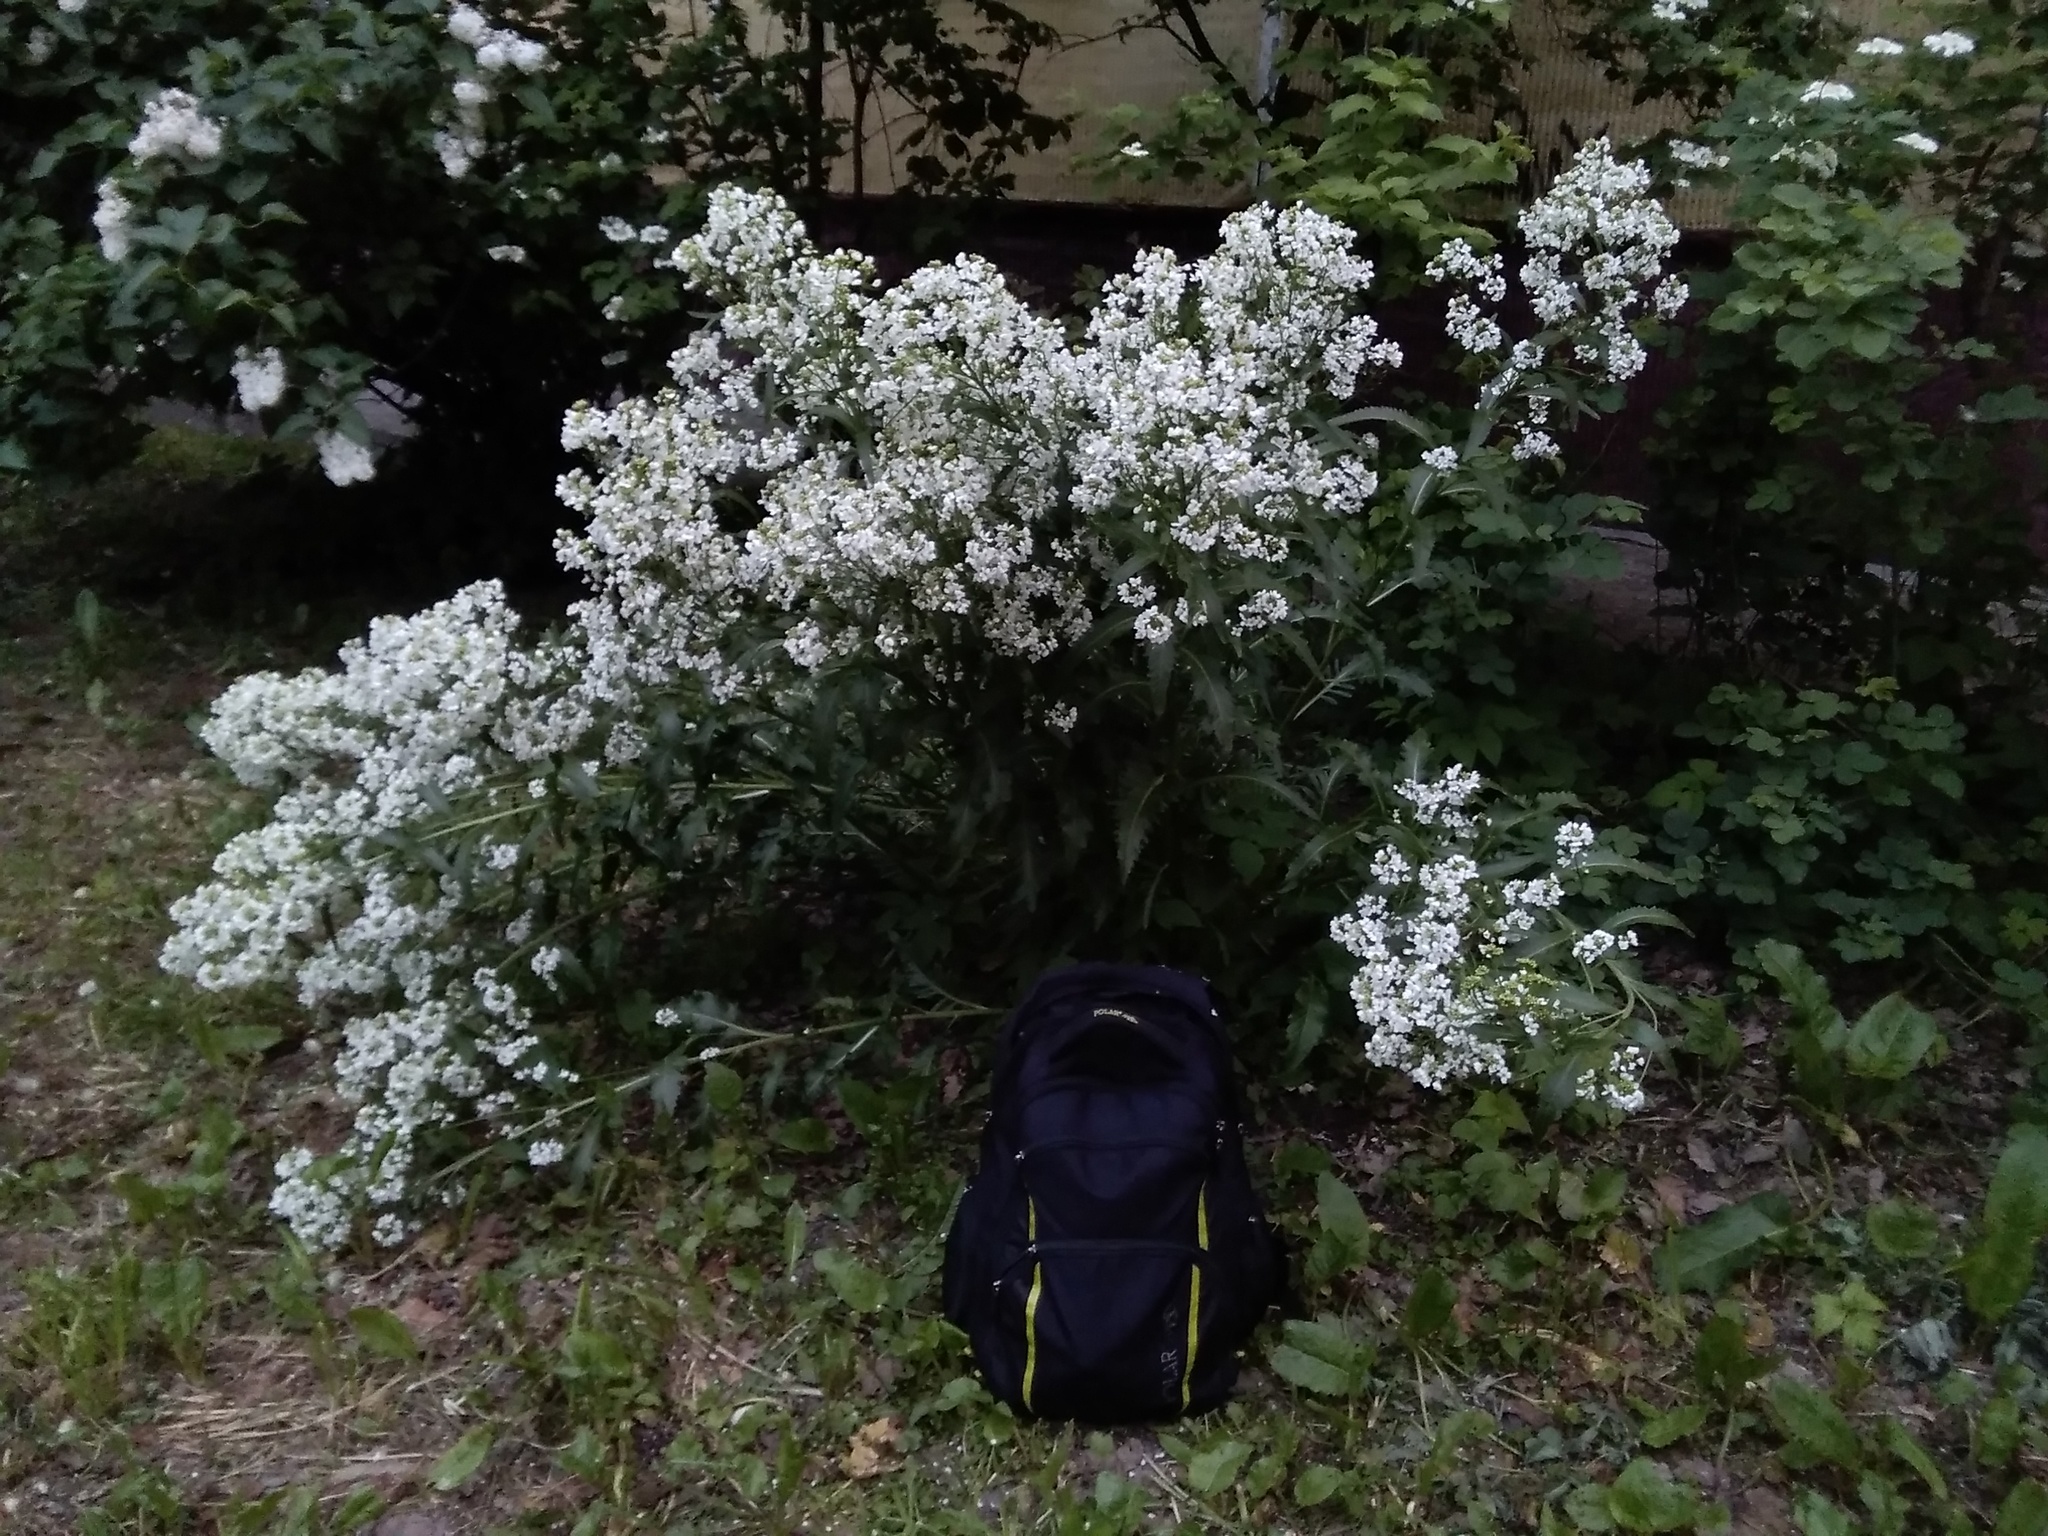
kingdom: Plantae
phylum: Tracheophyta
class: Magnoliopsida
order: Brassicales
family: Brassicaceae
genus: Armoracia
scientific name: Armoracia sisymbrioides
